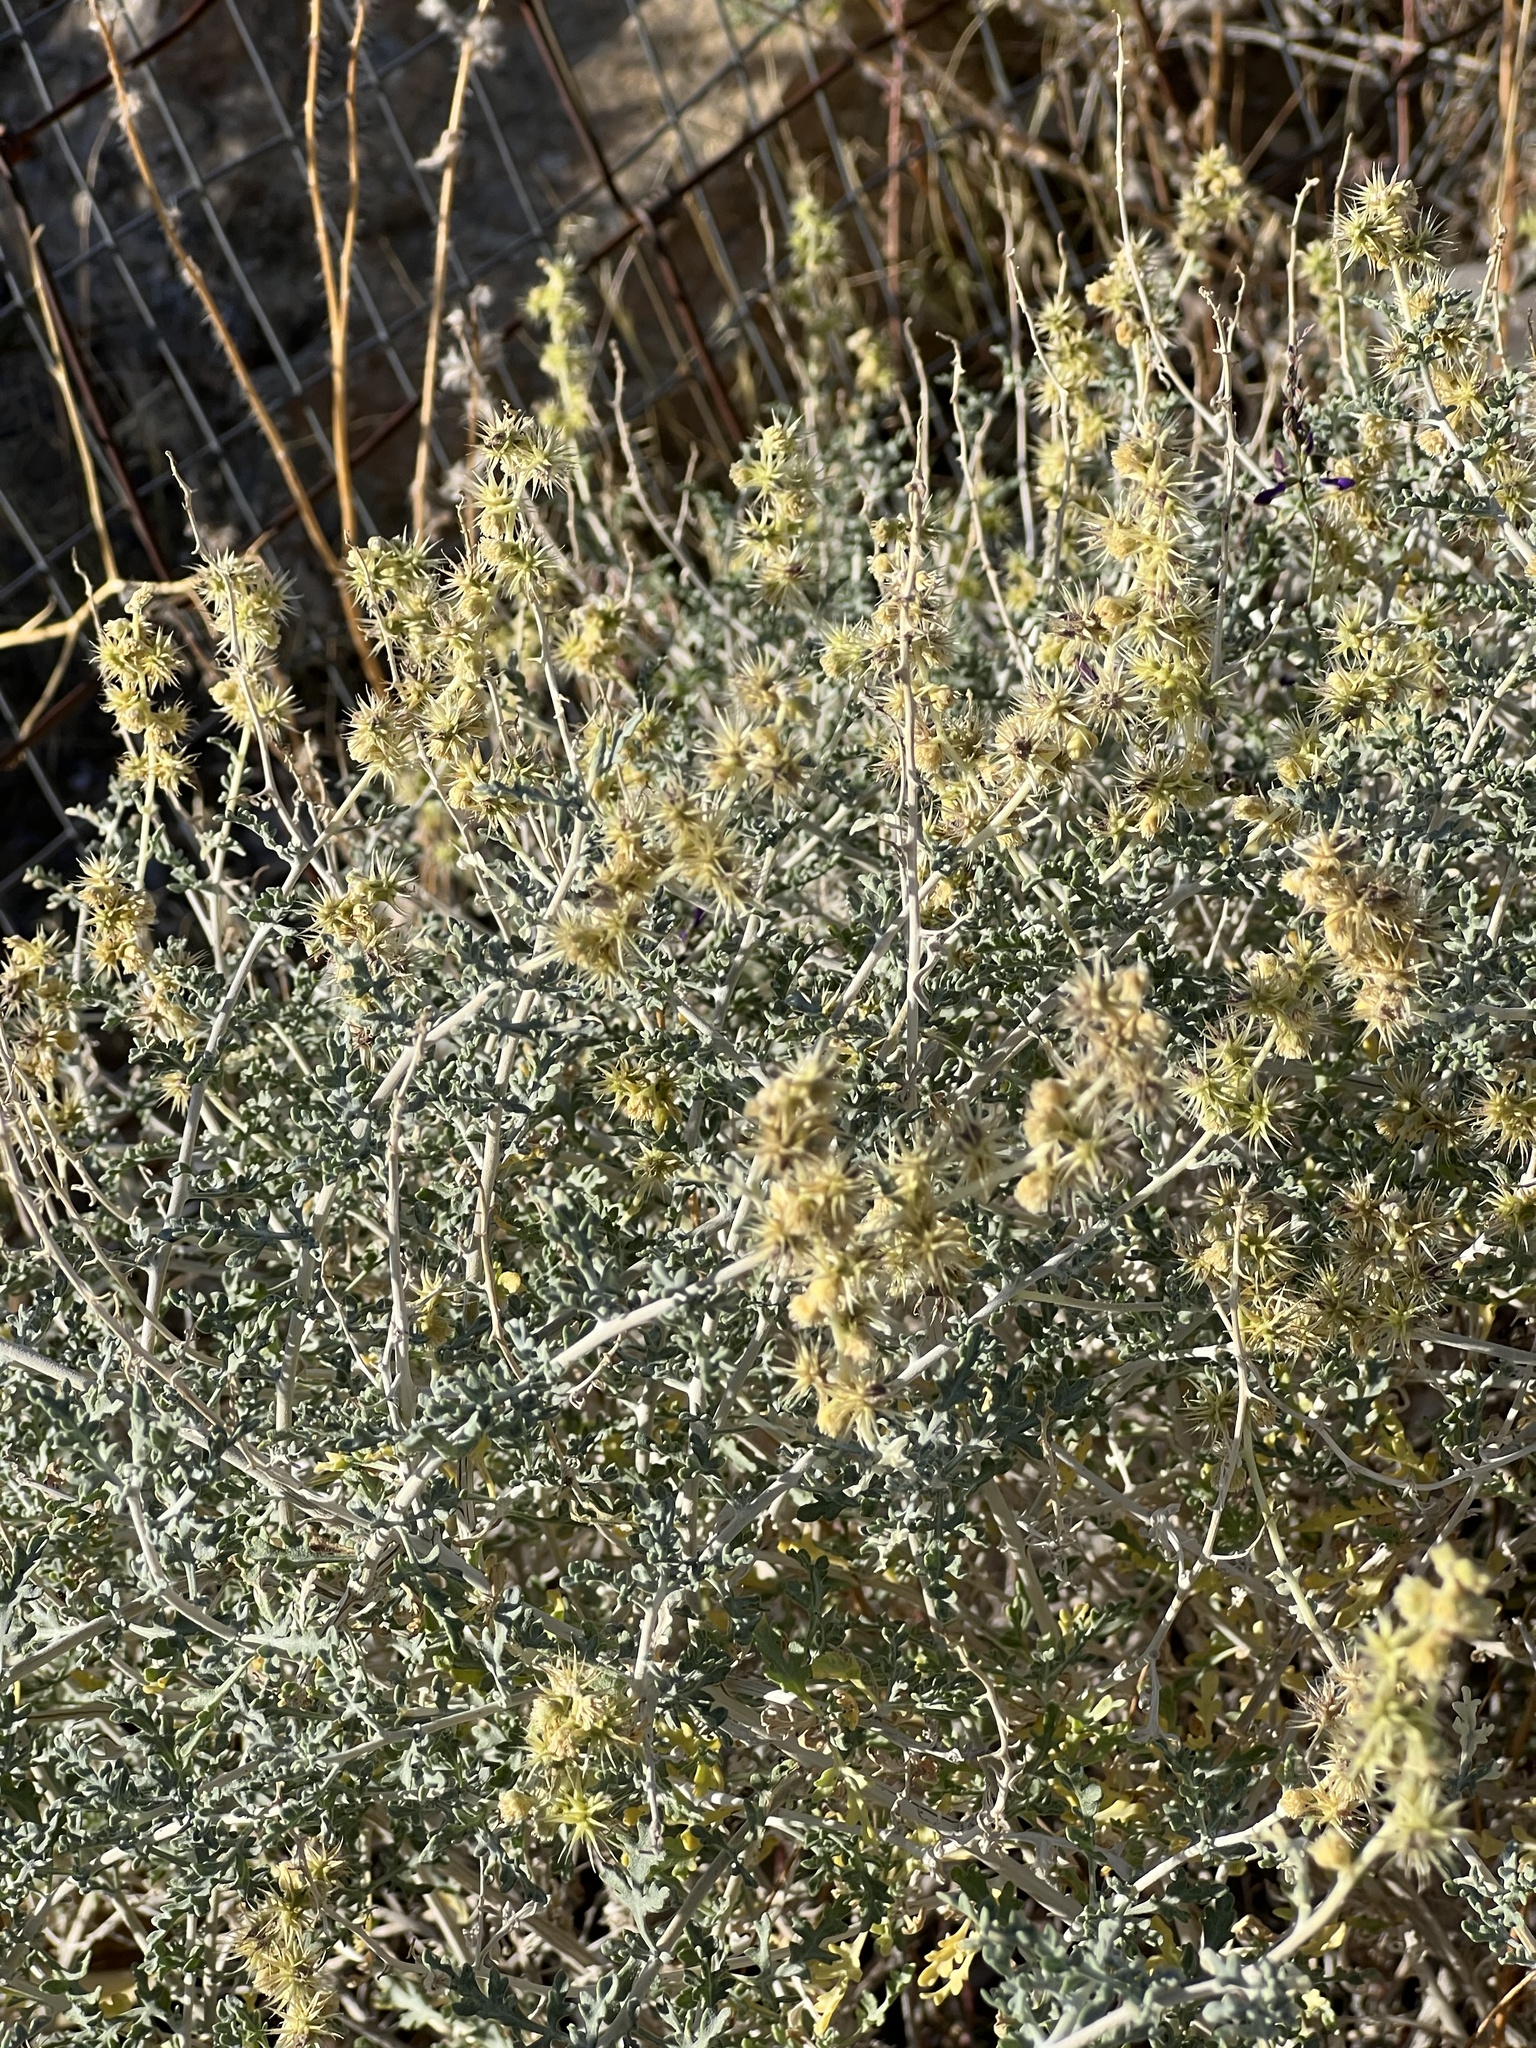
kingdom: Plantae
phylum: Tracheophyta
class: Magnoliopsida
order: Asterales
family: Asteraceae
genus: Ambrosia
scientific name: Ambrosia dumosa
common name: Bur-sage
